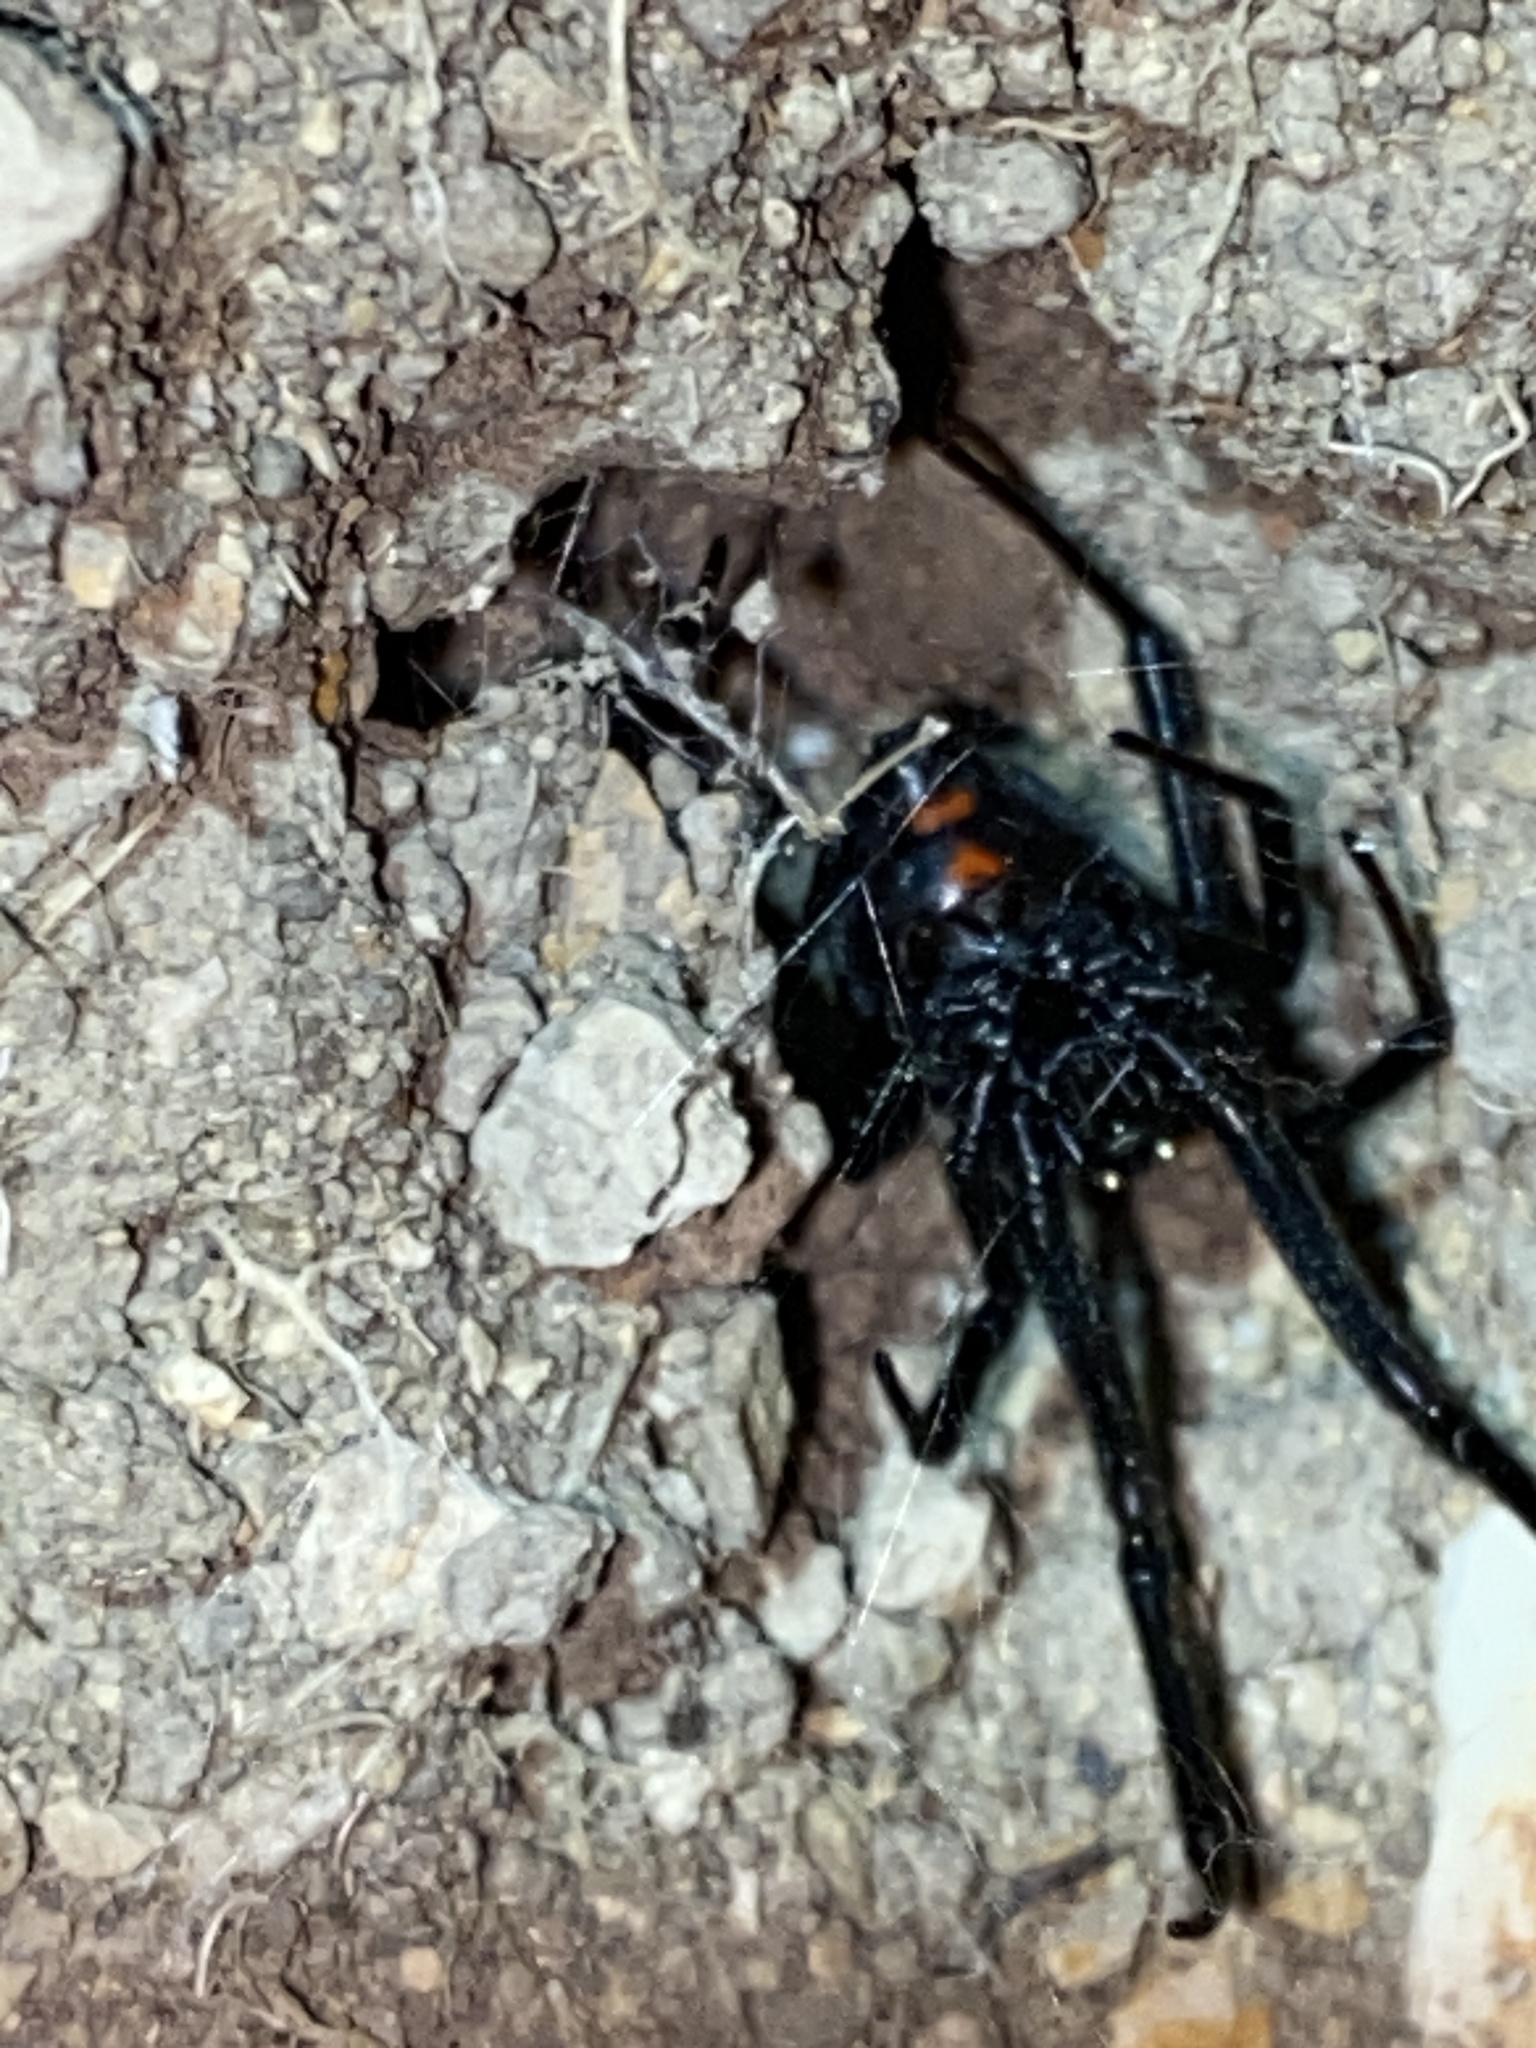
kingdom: Animalia
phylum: Arthropoda
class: Arachnida
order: Araneae
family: Theridiidae
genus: Latrodectus
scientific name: Latrodectus hesperus
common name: Western black widow
